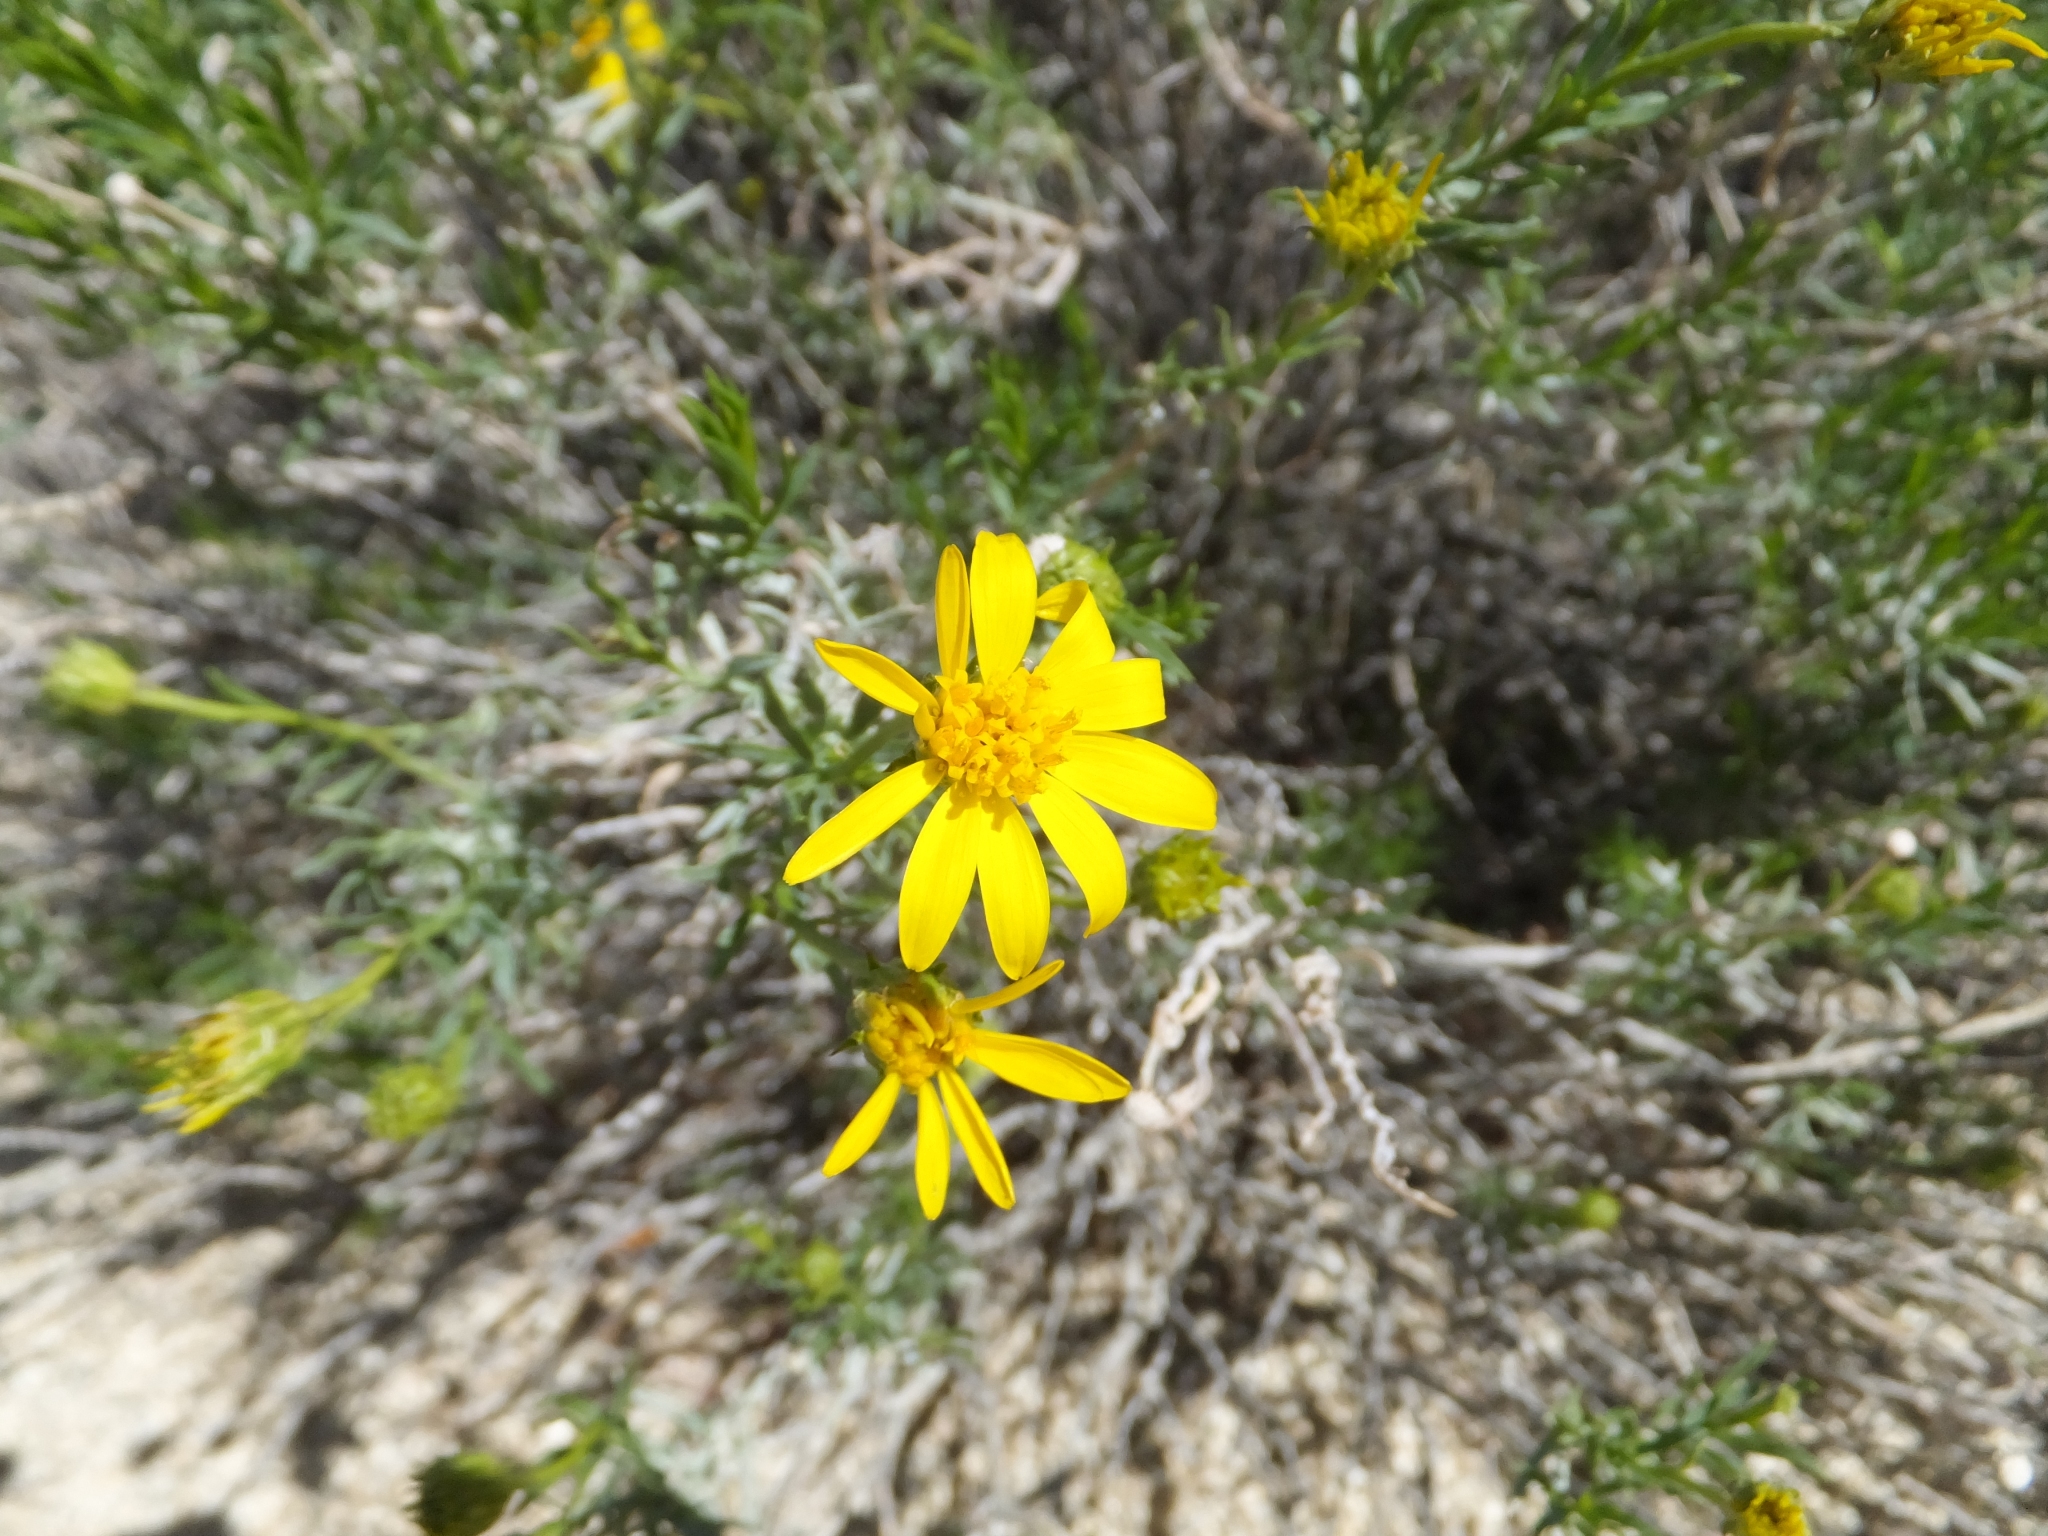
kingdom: Plantae
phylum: Tracheophyta
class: Magnoliopsida
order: Asterales
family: Asteraceae
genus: Ericameria
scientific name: Ericameria linearifolia
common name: Interior goldenbush
